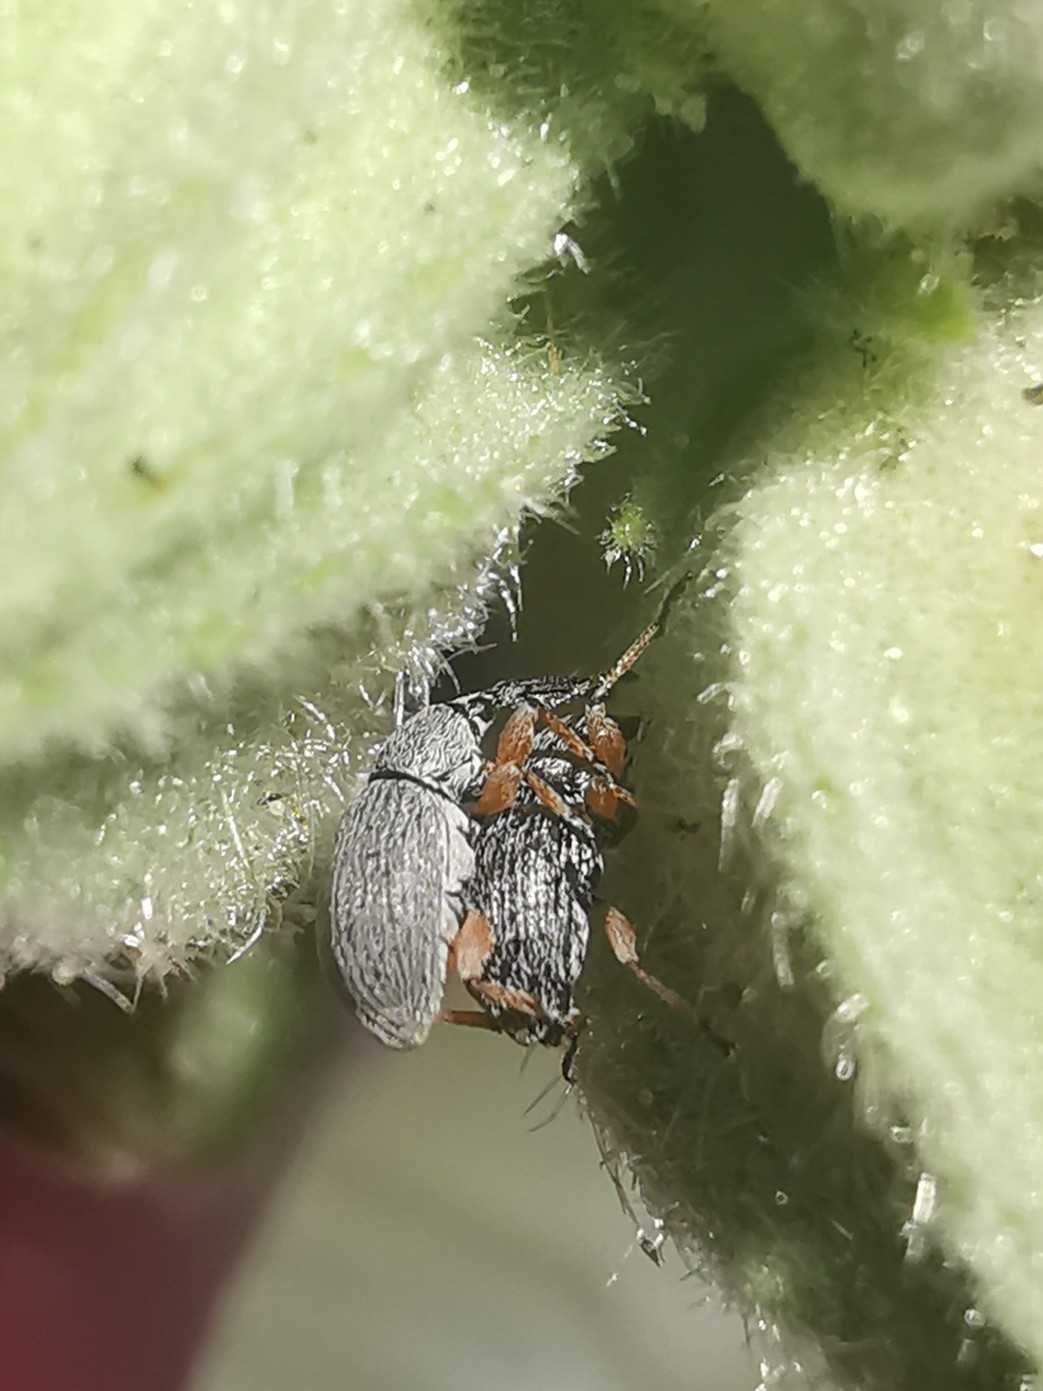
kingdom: Animalia
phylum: Arthropoda
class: Insecta
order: Coleoptera
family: Brentidae
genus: Rhopalapion
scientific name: Rhopalapion longirostre
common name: Hollyhock weevil
